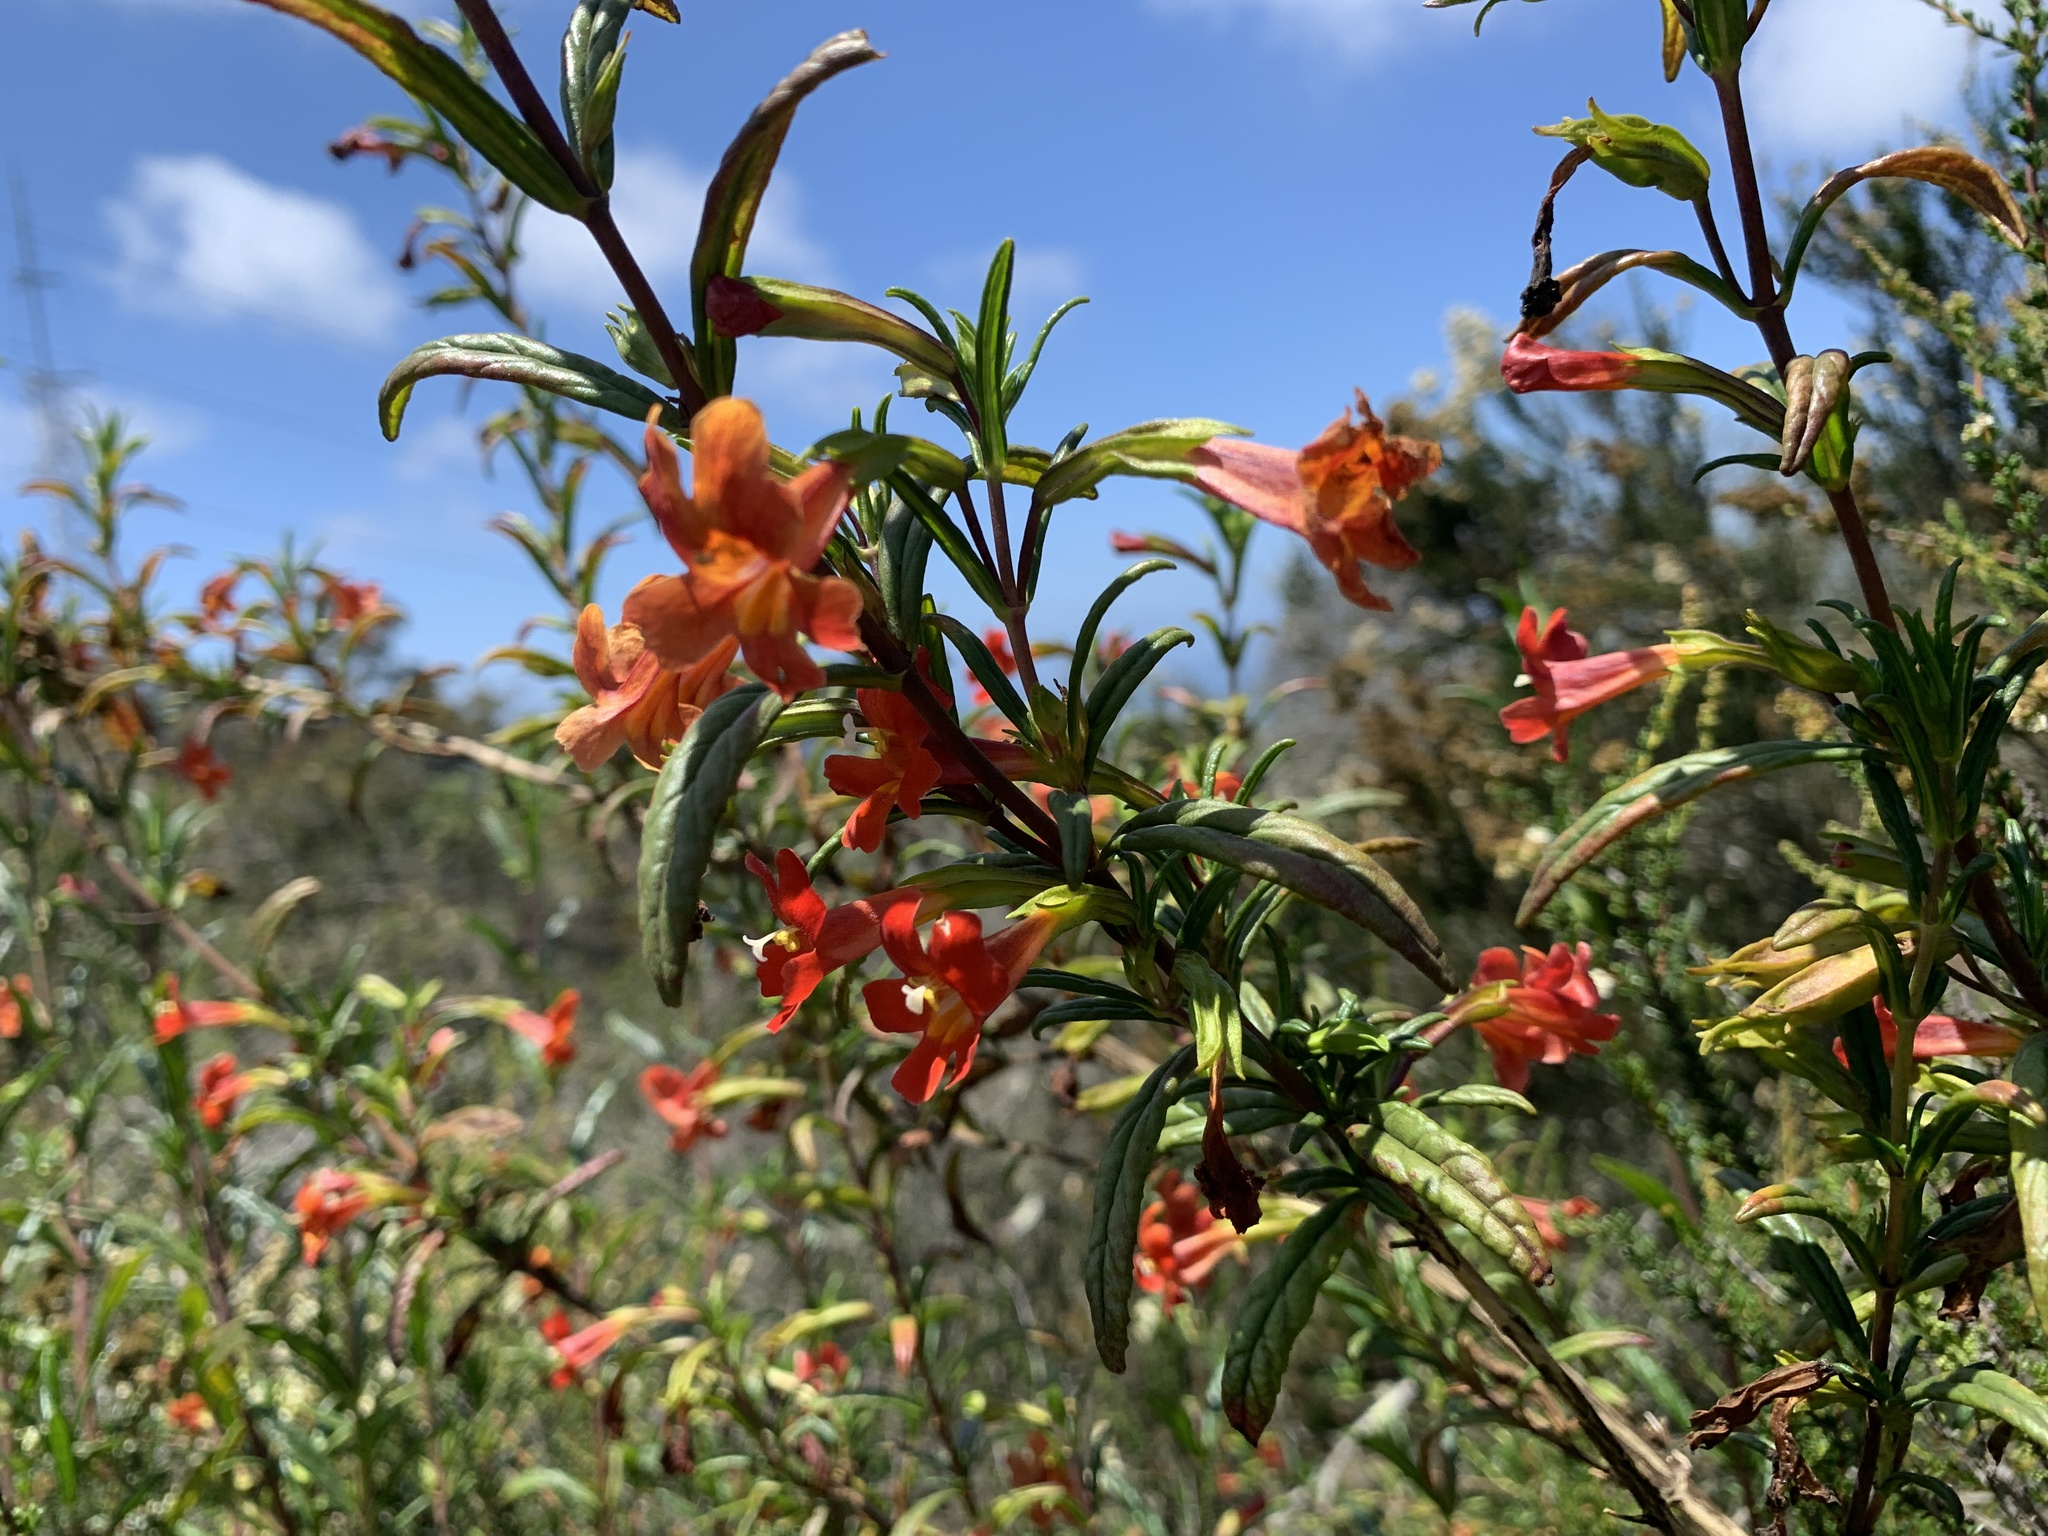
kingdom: Plantae
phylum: Tracheophyta
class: Magnoliopsida
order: Lamiales
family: Phrymaceae
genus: Diplacus
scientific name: Diplacus puniceus
